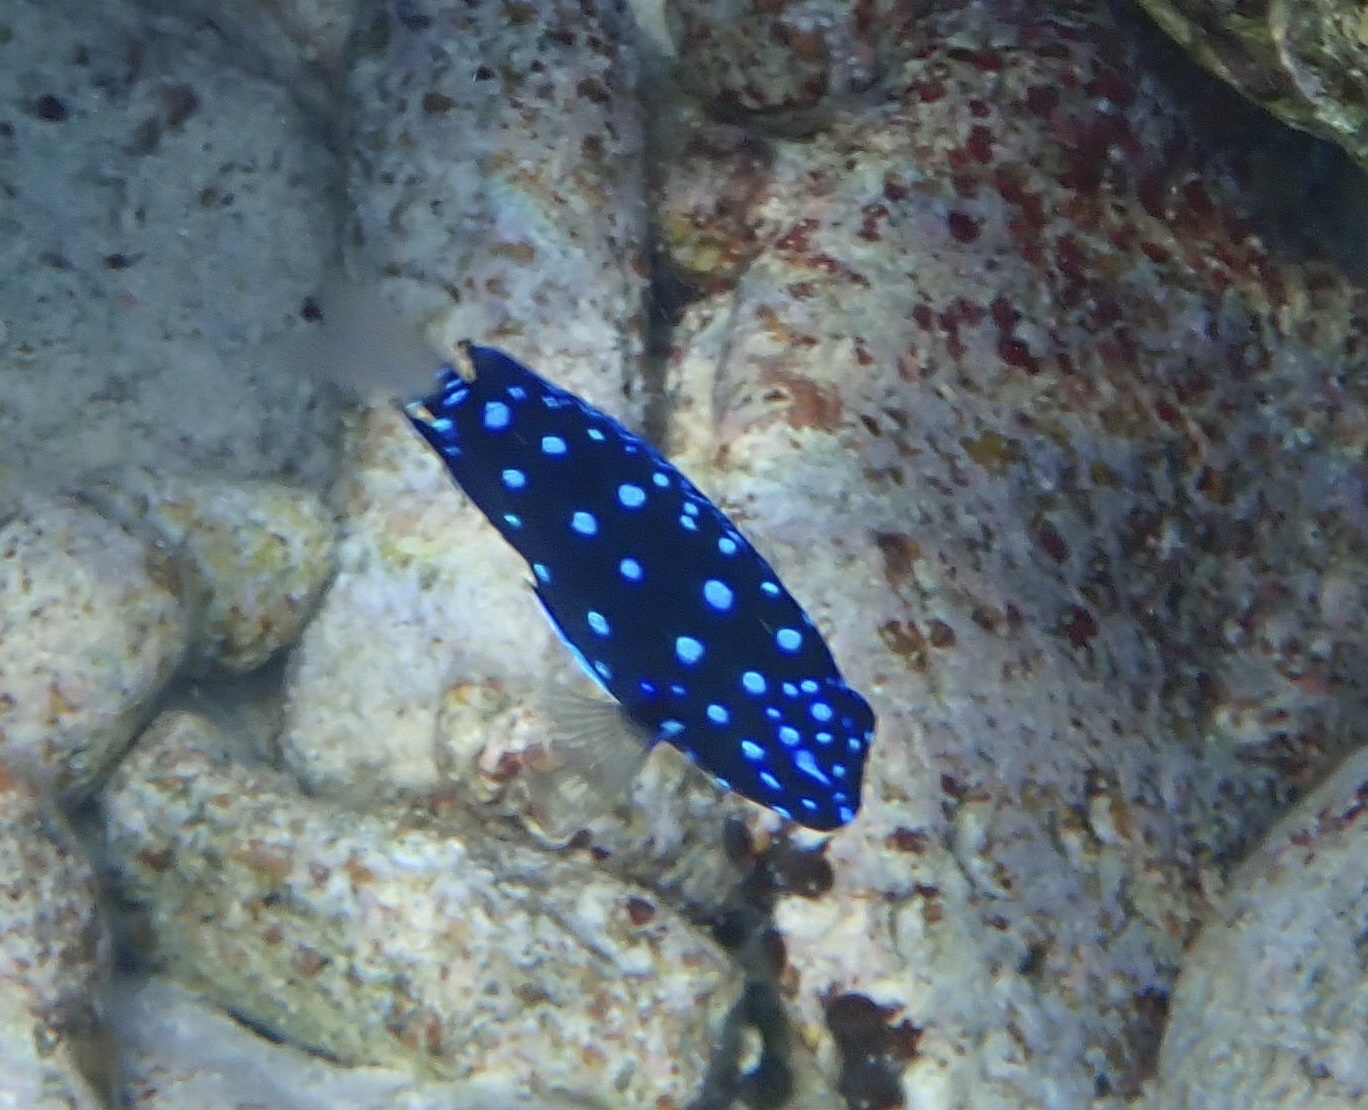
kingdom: Animalia
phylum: Chordata
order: Perciformes
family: Pomacentridae
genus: Microspathodon
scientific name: Microspathodon chrysurus
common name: Yellowtail damselfish
